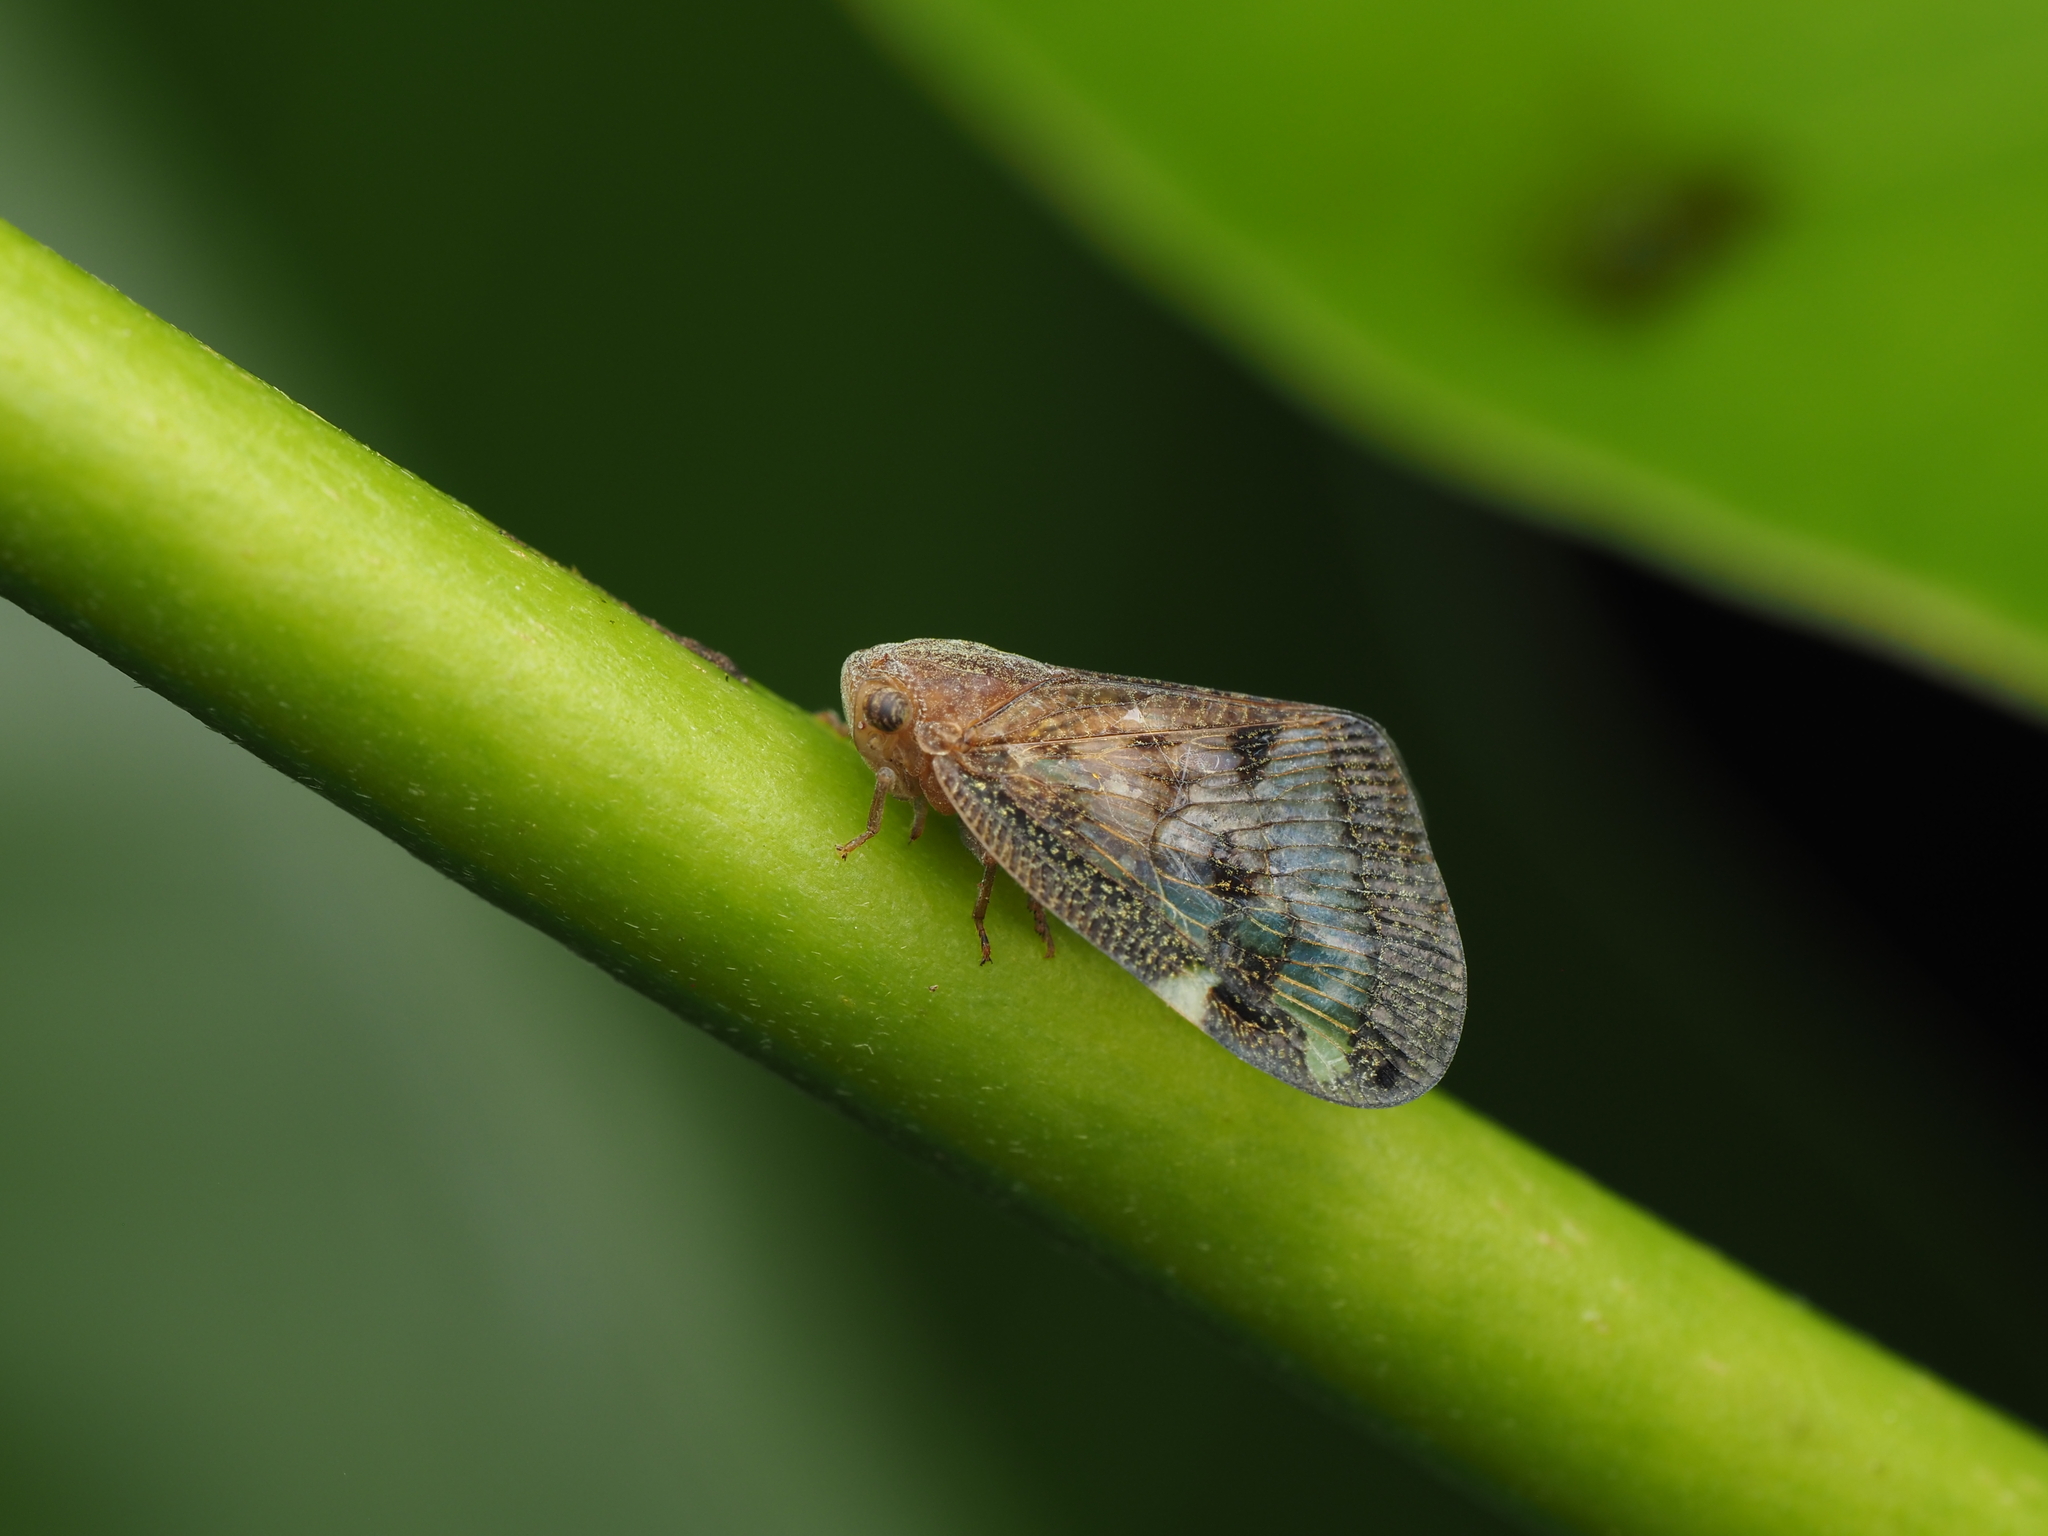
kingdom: Animalia
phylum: Arthropoda
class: Insecta
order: Hemiptera
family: Ricaniidae
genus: Scolypopa
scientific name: Scolypopa australis
